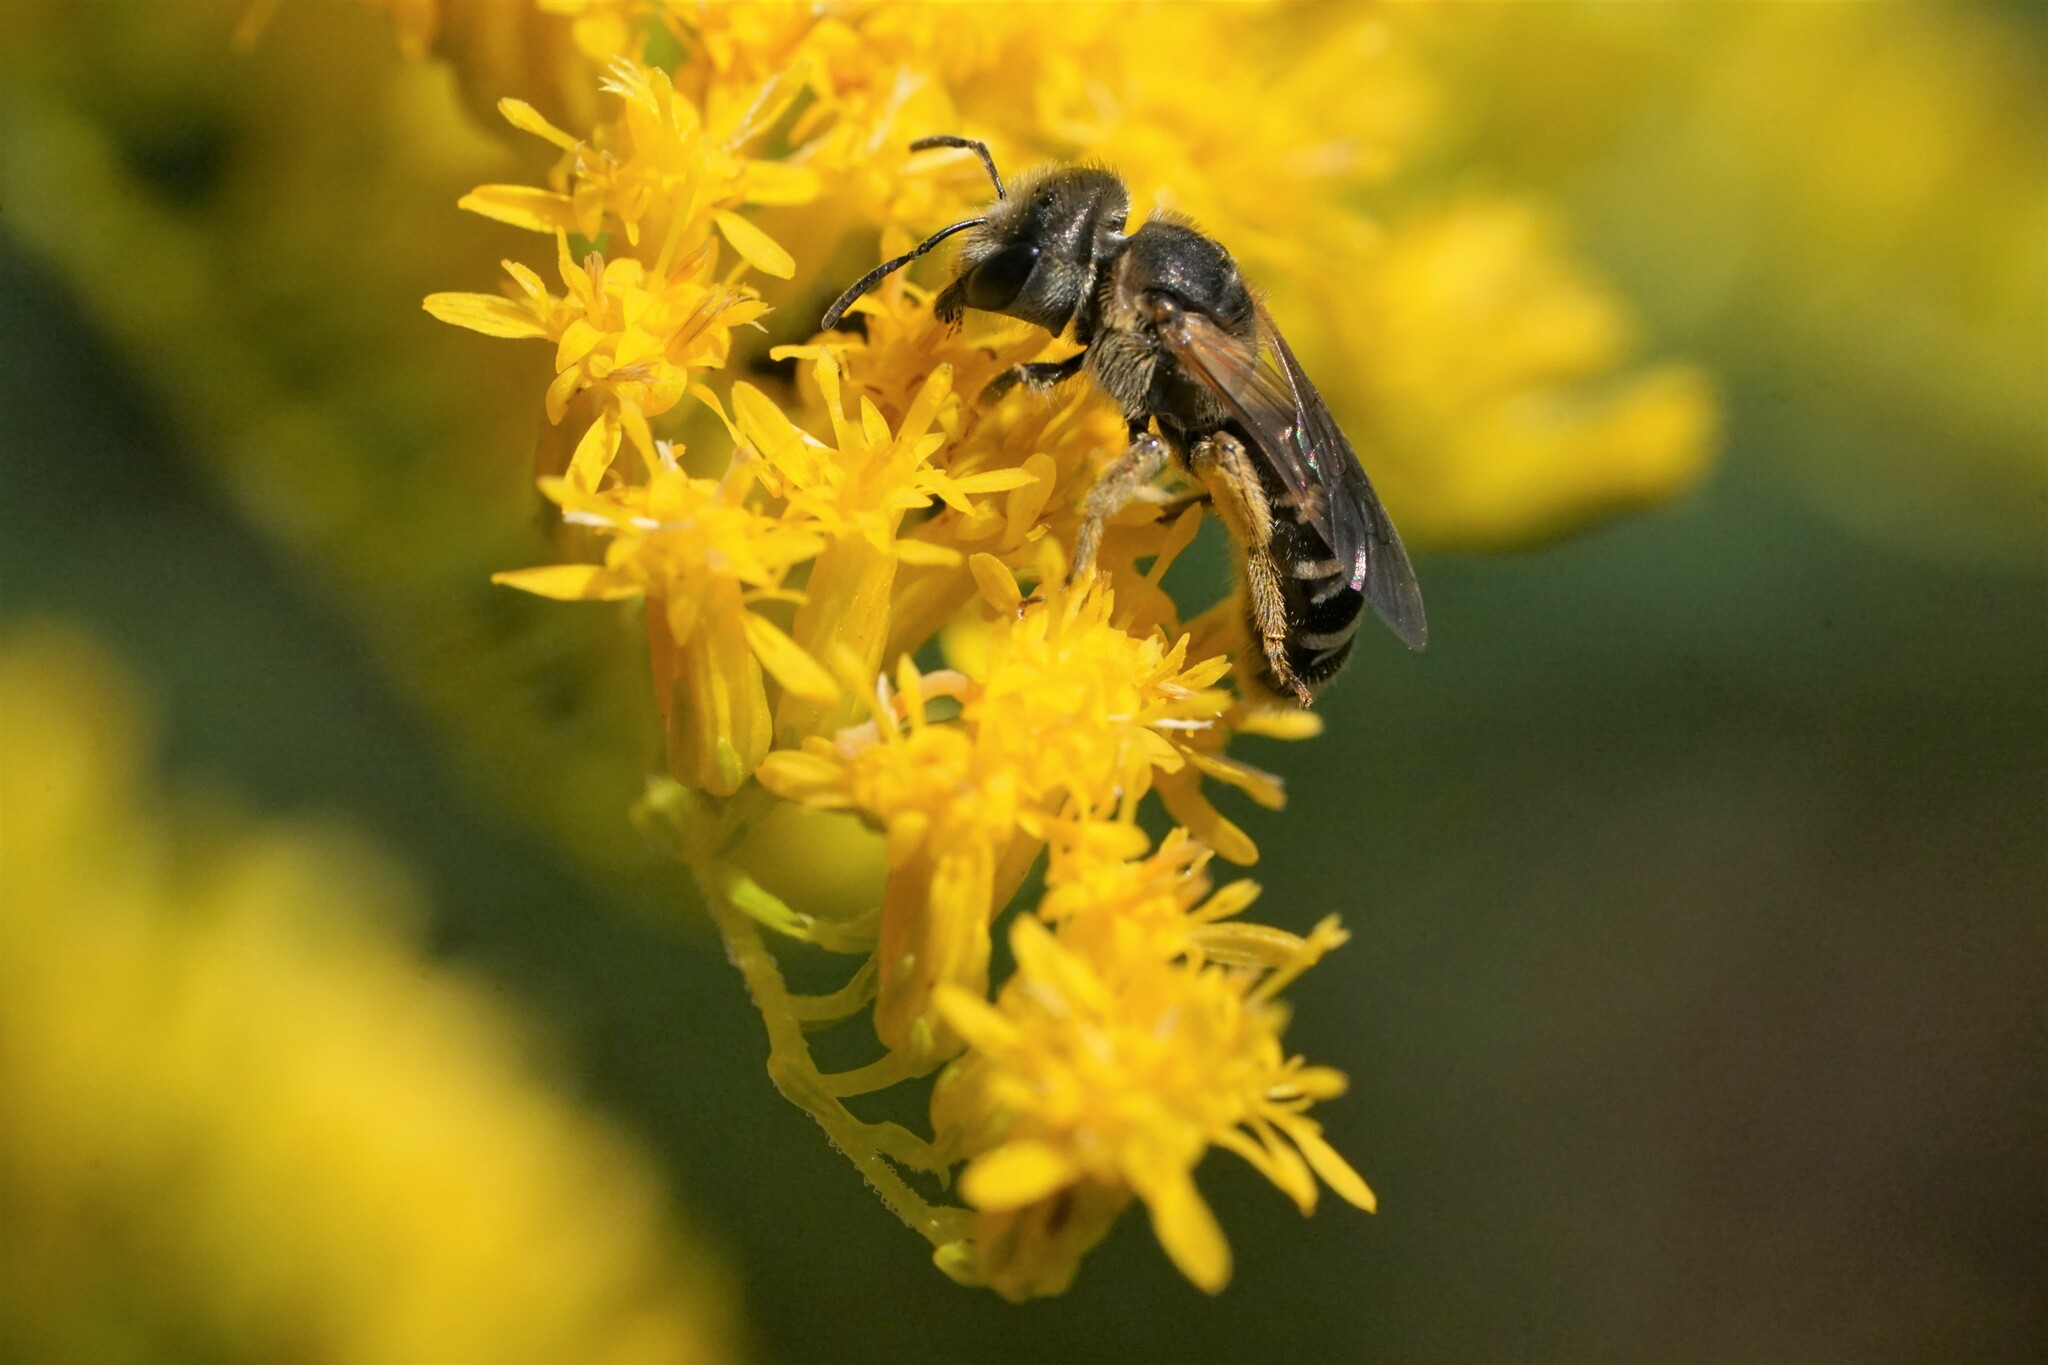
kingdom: Animalia
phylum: Arthropoda
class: Insecta
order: Hymenoptera
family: Halictidae
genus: Halictus
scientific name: Halictus ligatus
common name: Ligated furrow bee
